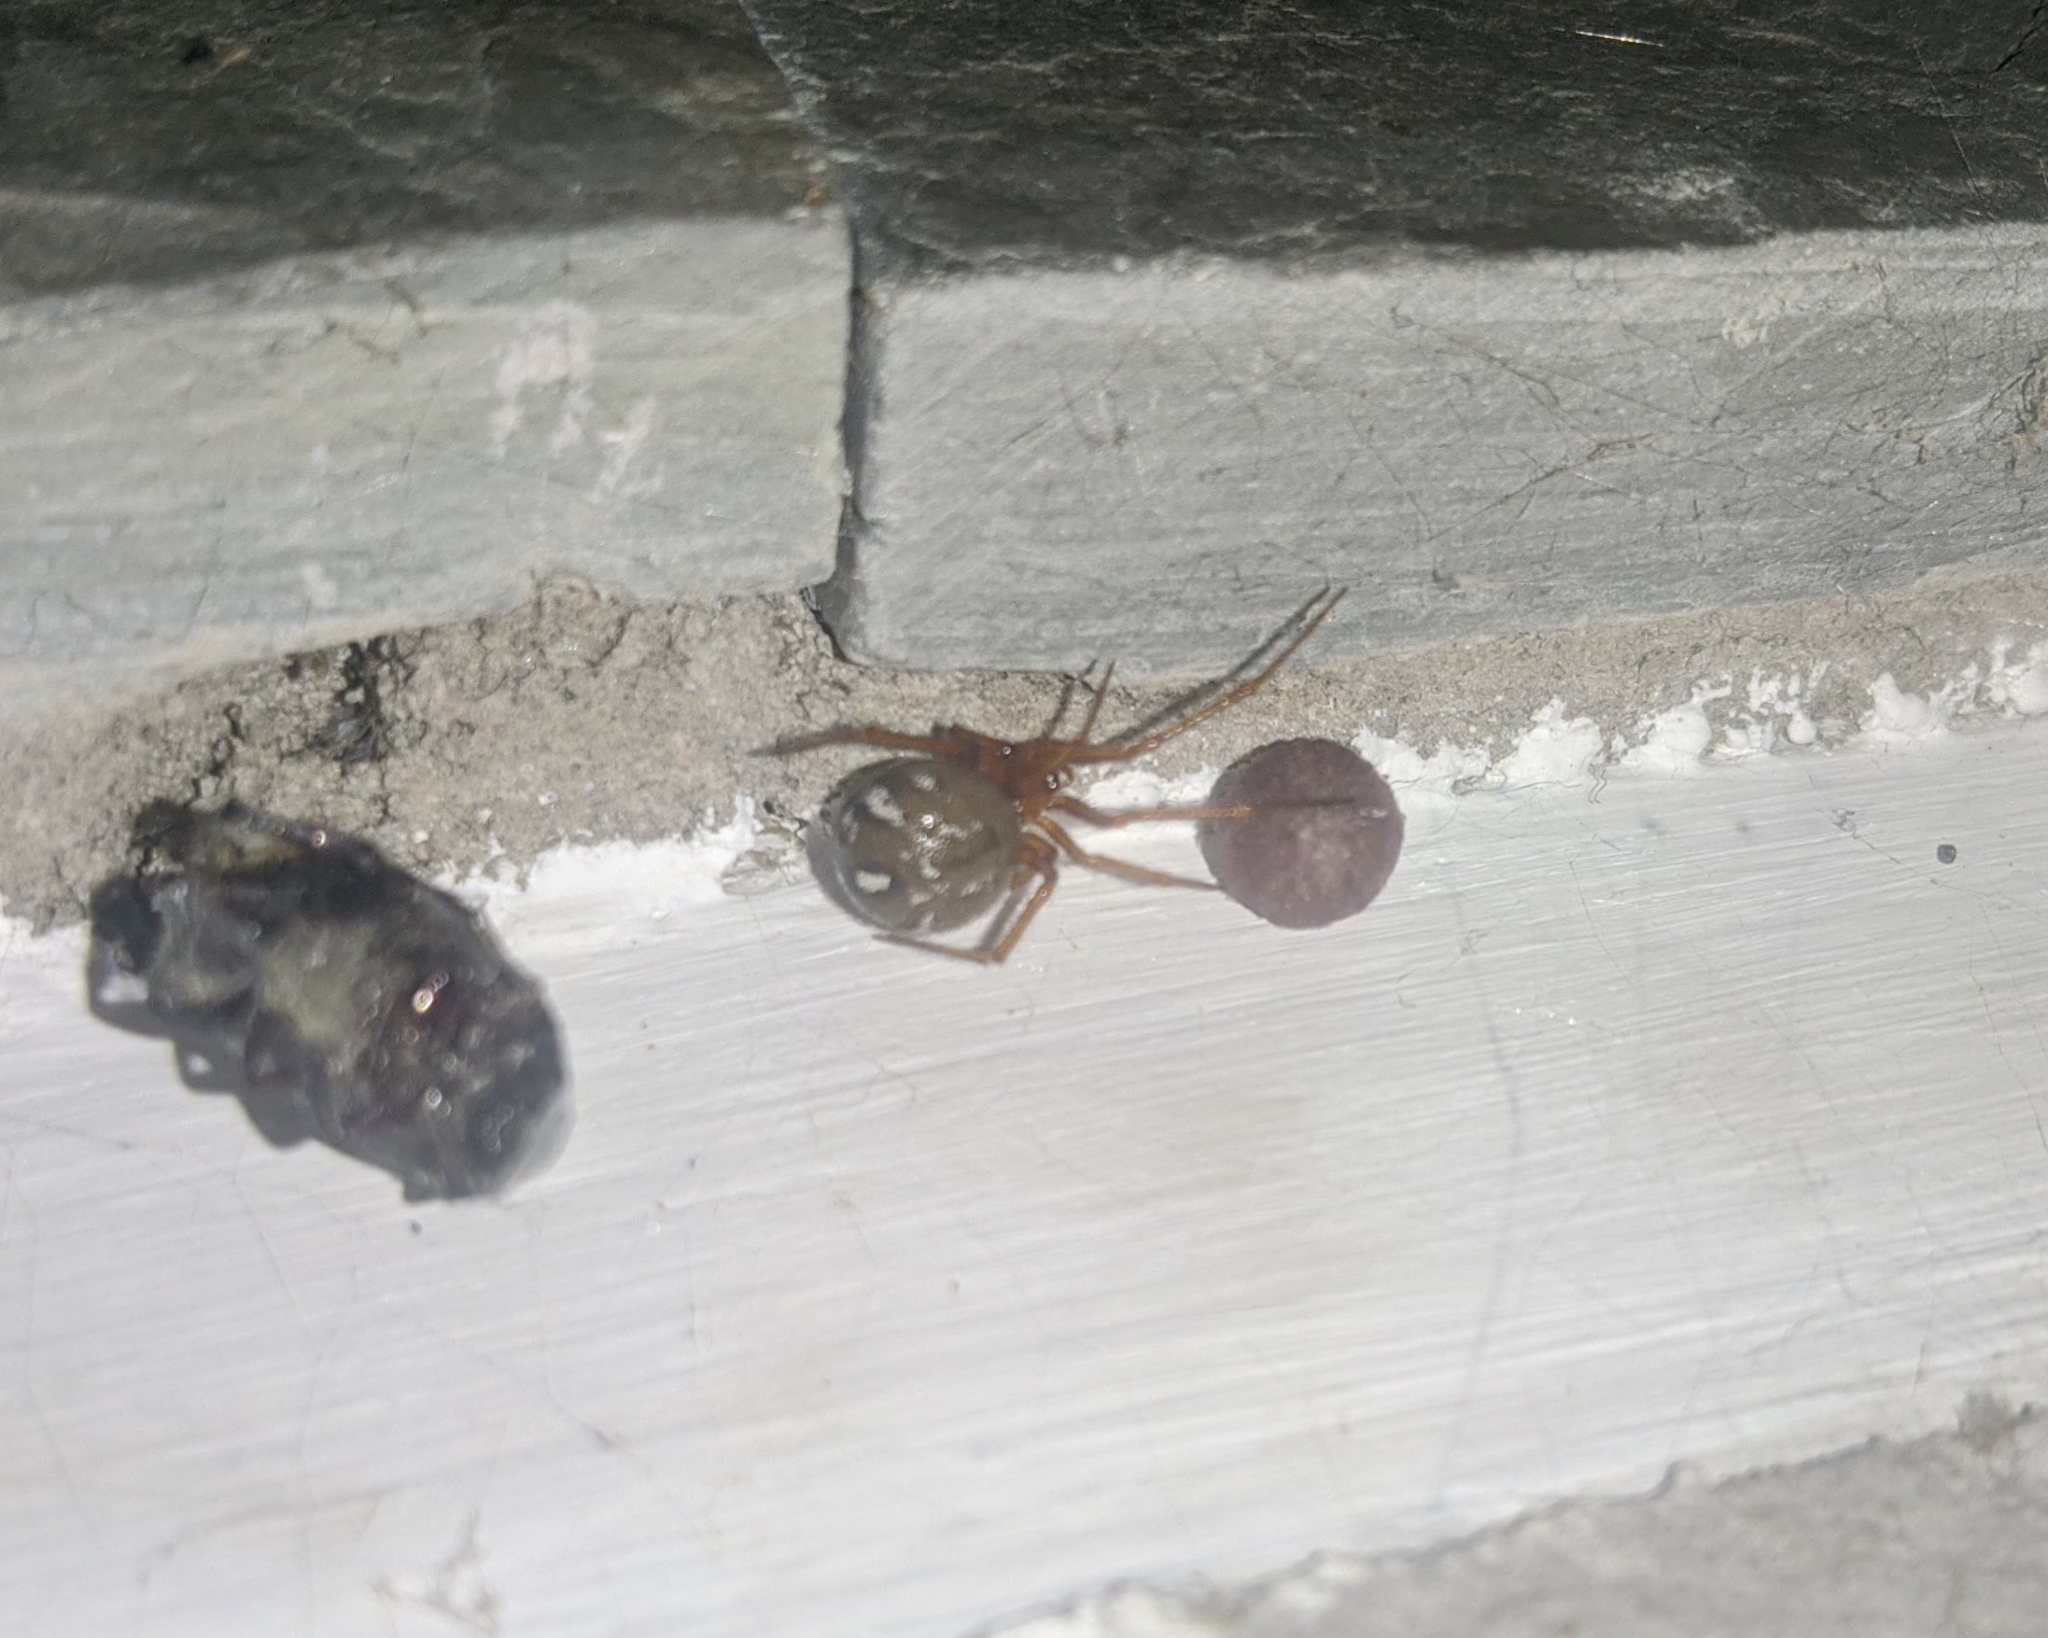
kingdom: Animalia
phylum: Arthropoda
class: Arachnida
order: Araneae
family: Theridiidae
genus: Nesticodes
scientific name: Nesticodes rufipes
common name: Cobweb spiders
